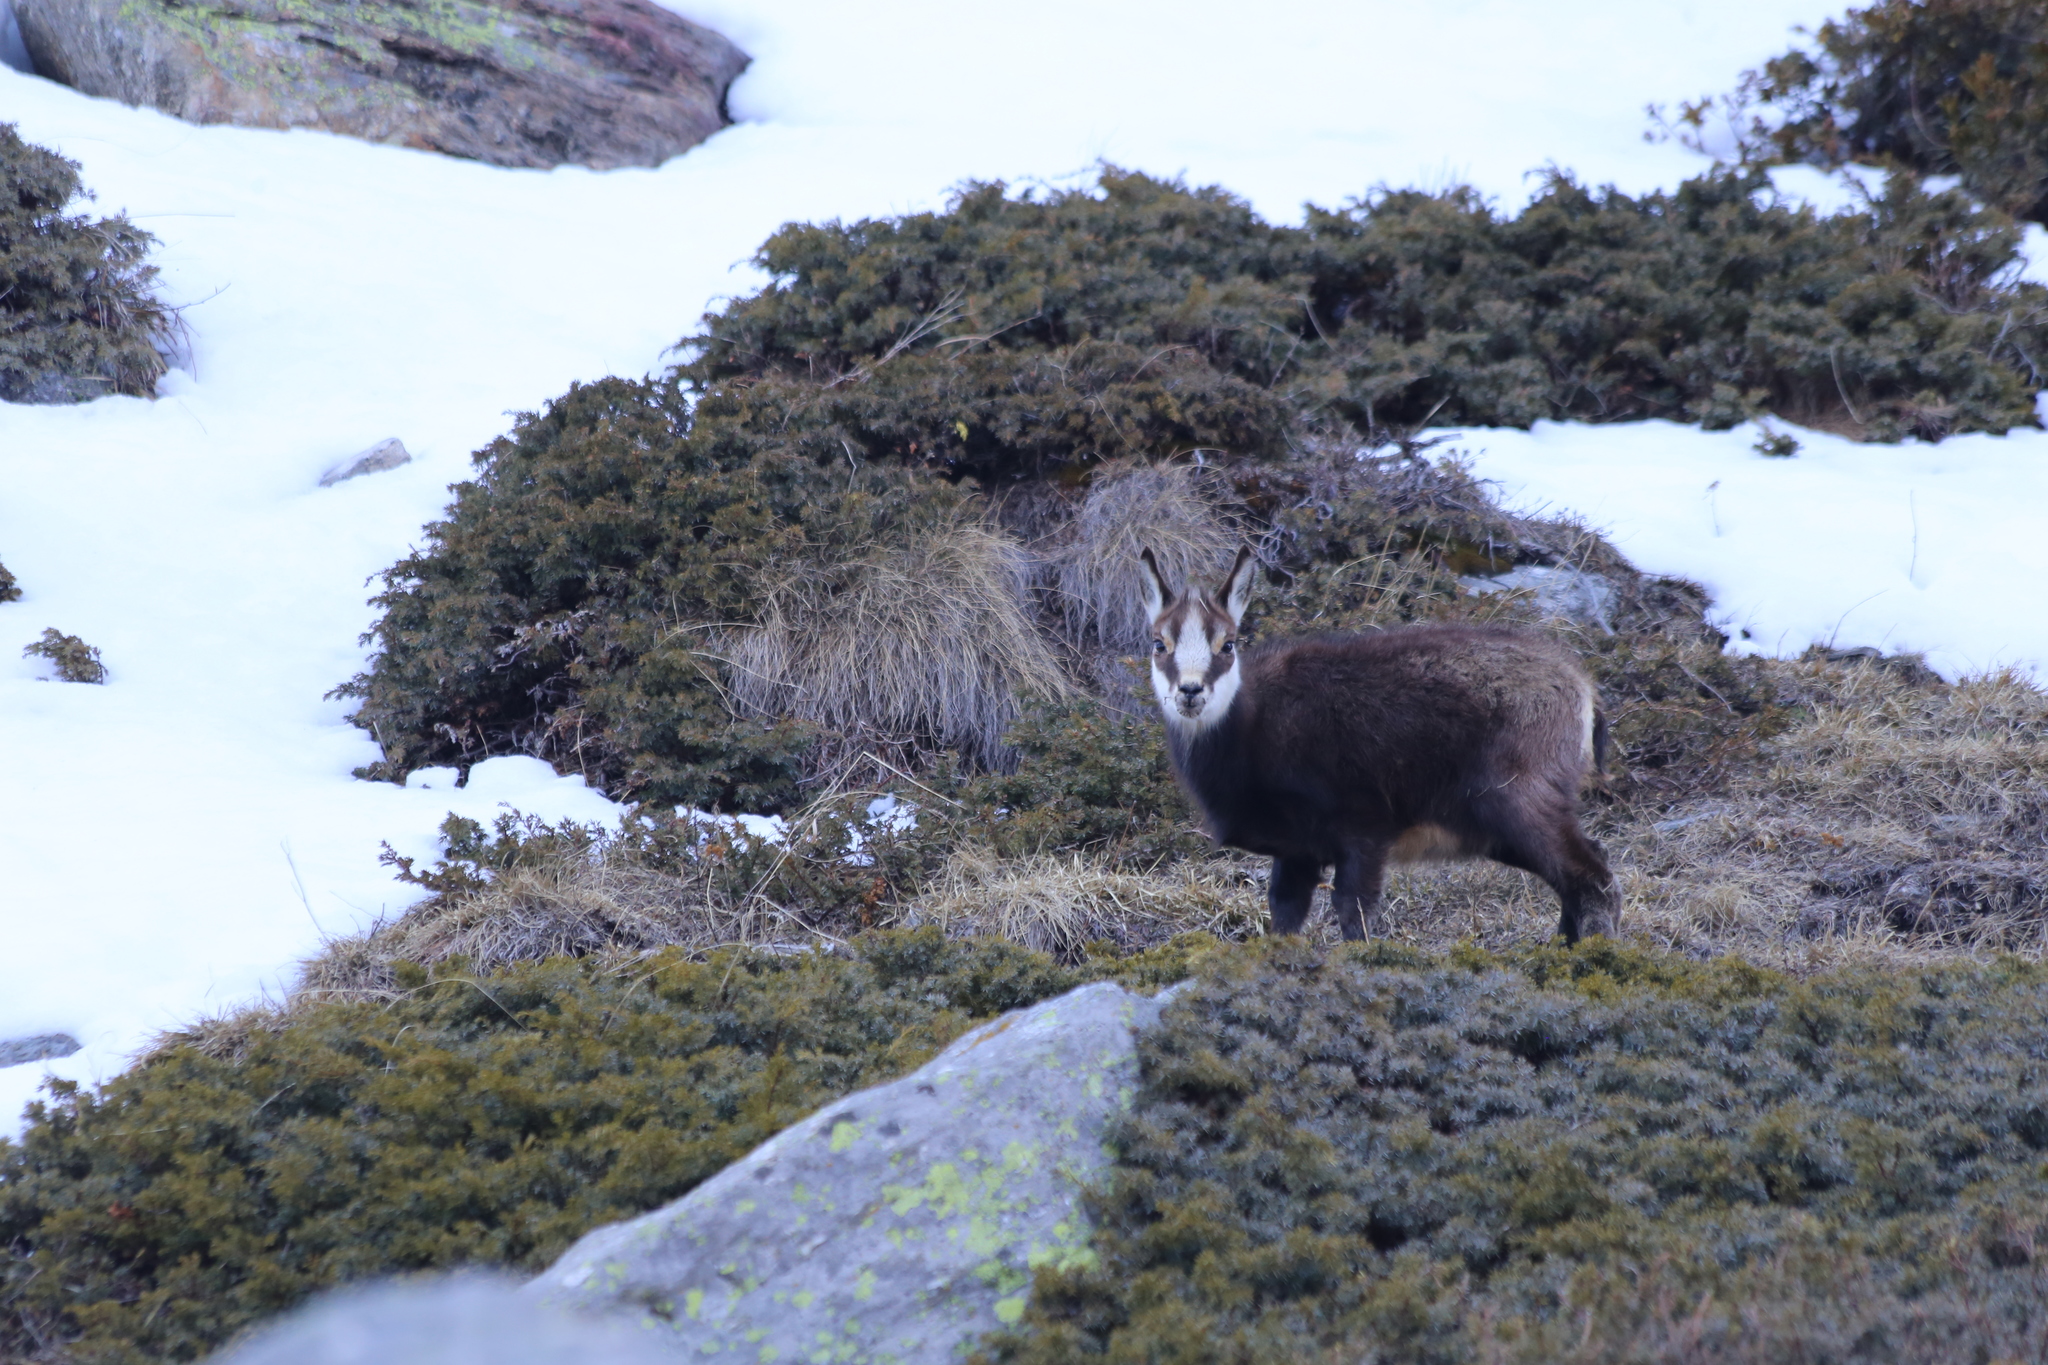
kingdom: Animalia
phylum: Chordata
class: Mammalia
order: Artiodactyla
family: Bovidae
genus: Rupicapra
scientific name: Rupicapra rupicapra
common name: Chamois
